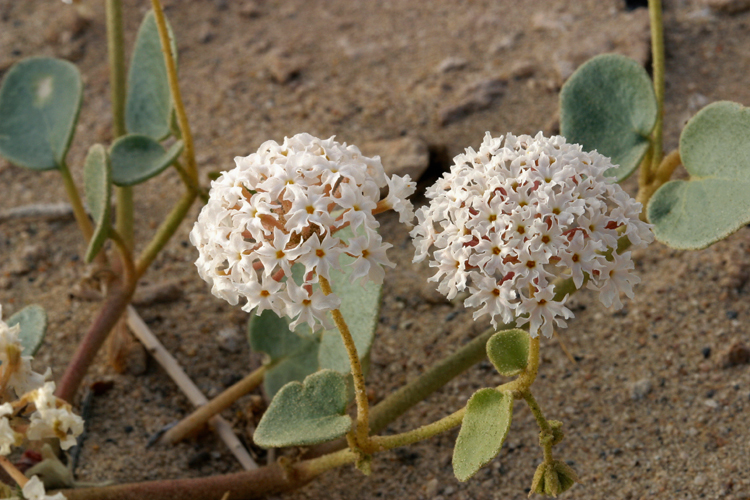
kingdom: Plantae
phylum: Tracheophyta
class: Magnoliopsida
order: Caryophyllales
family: Nyctaginaceae
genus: Abronia
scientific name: Abronia turbinata
